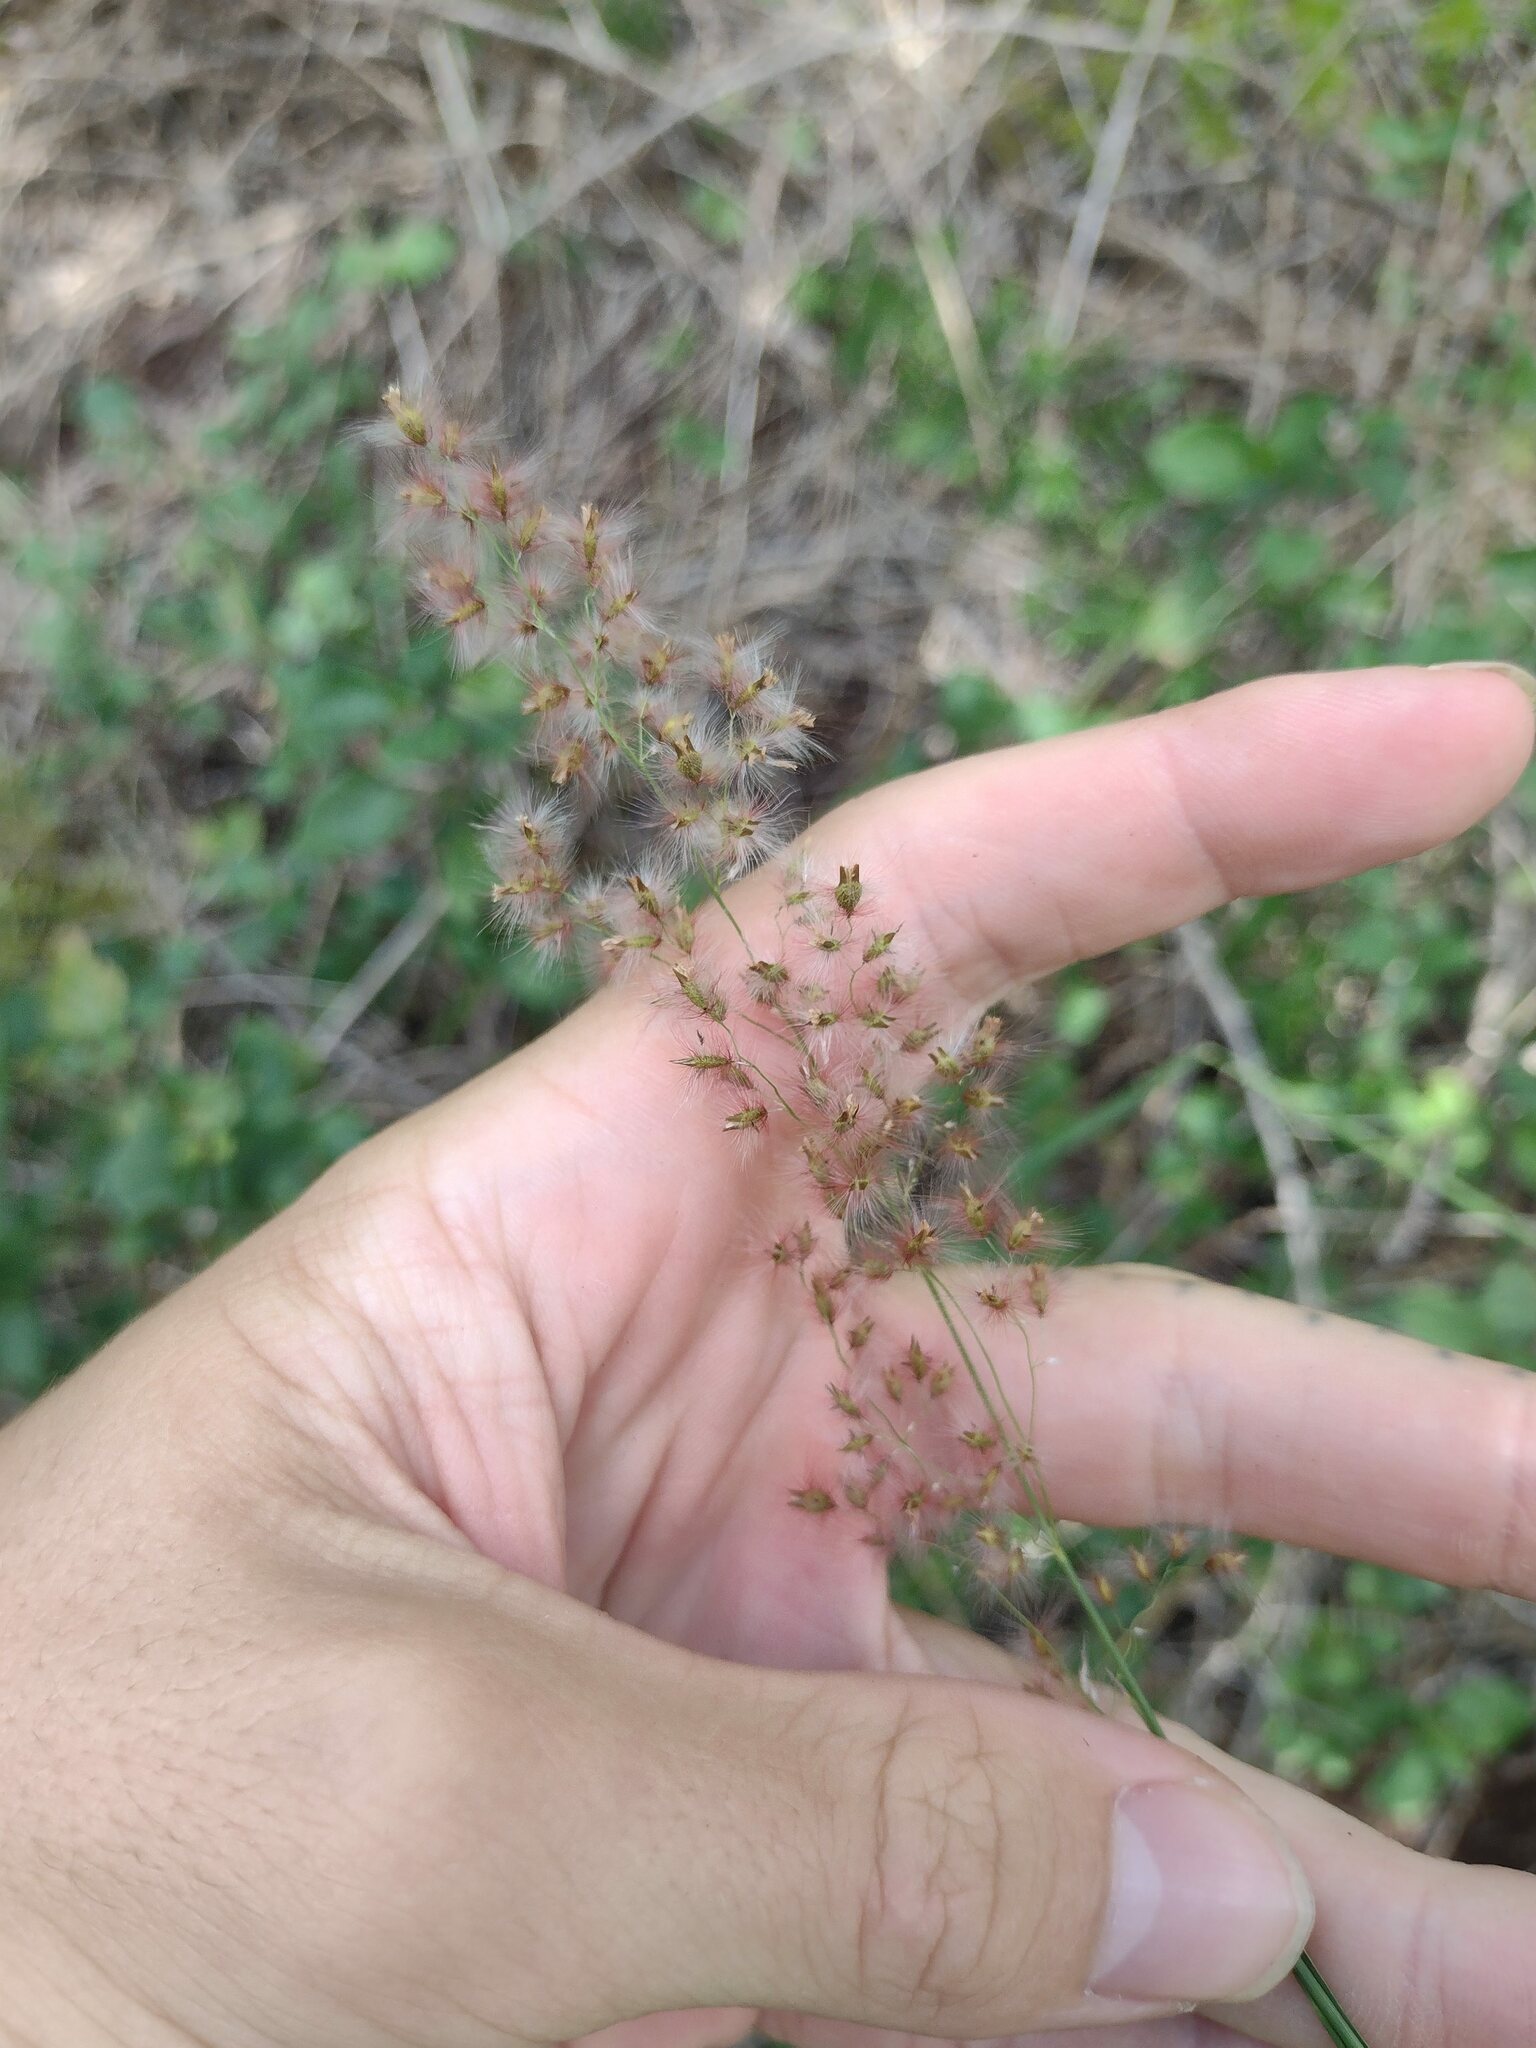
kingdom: Plantae
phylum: Tracheophyta
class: Liliopsida
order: Poales
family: Poaceae
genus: Melinis
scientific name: Melinis repens
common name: Rose natal grass
